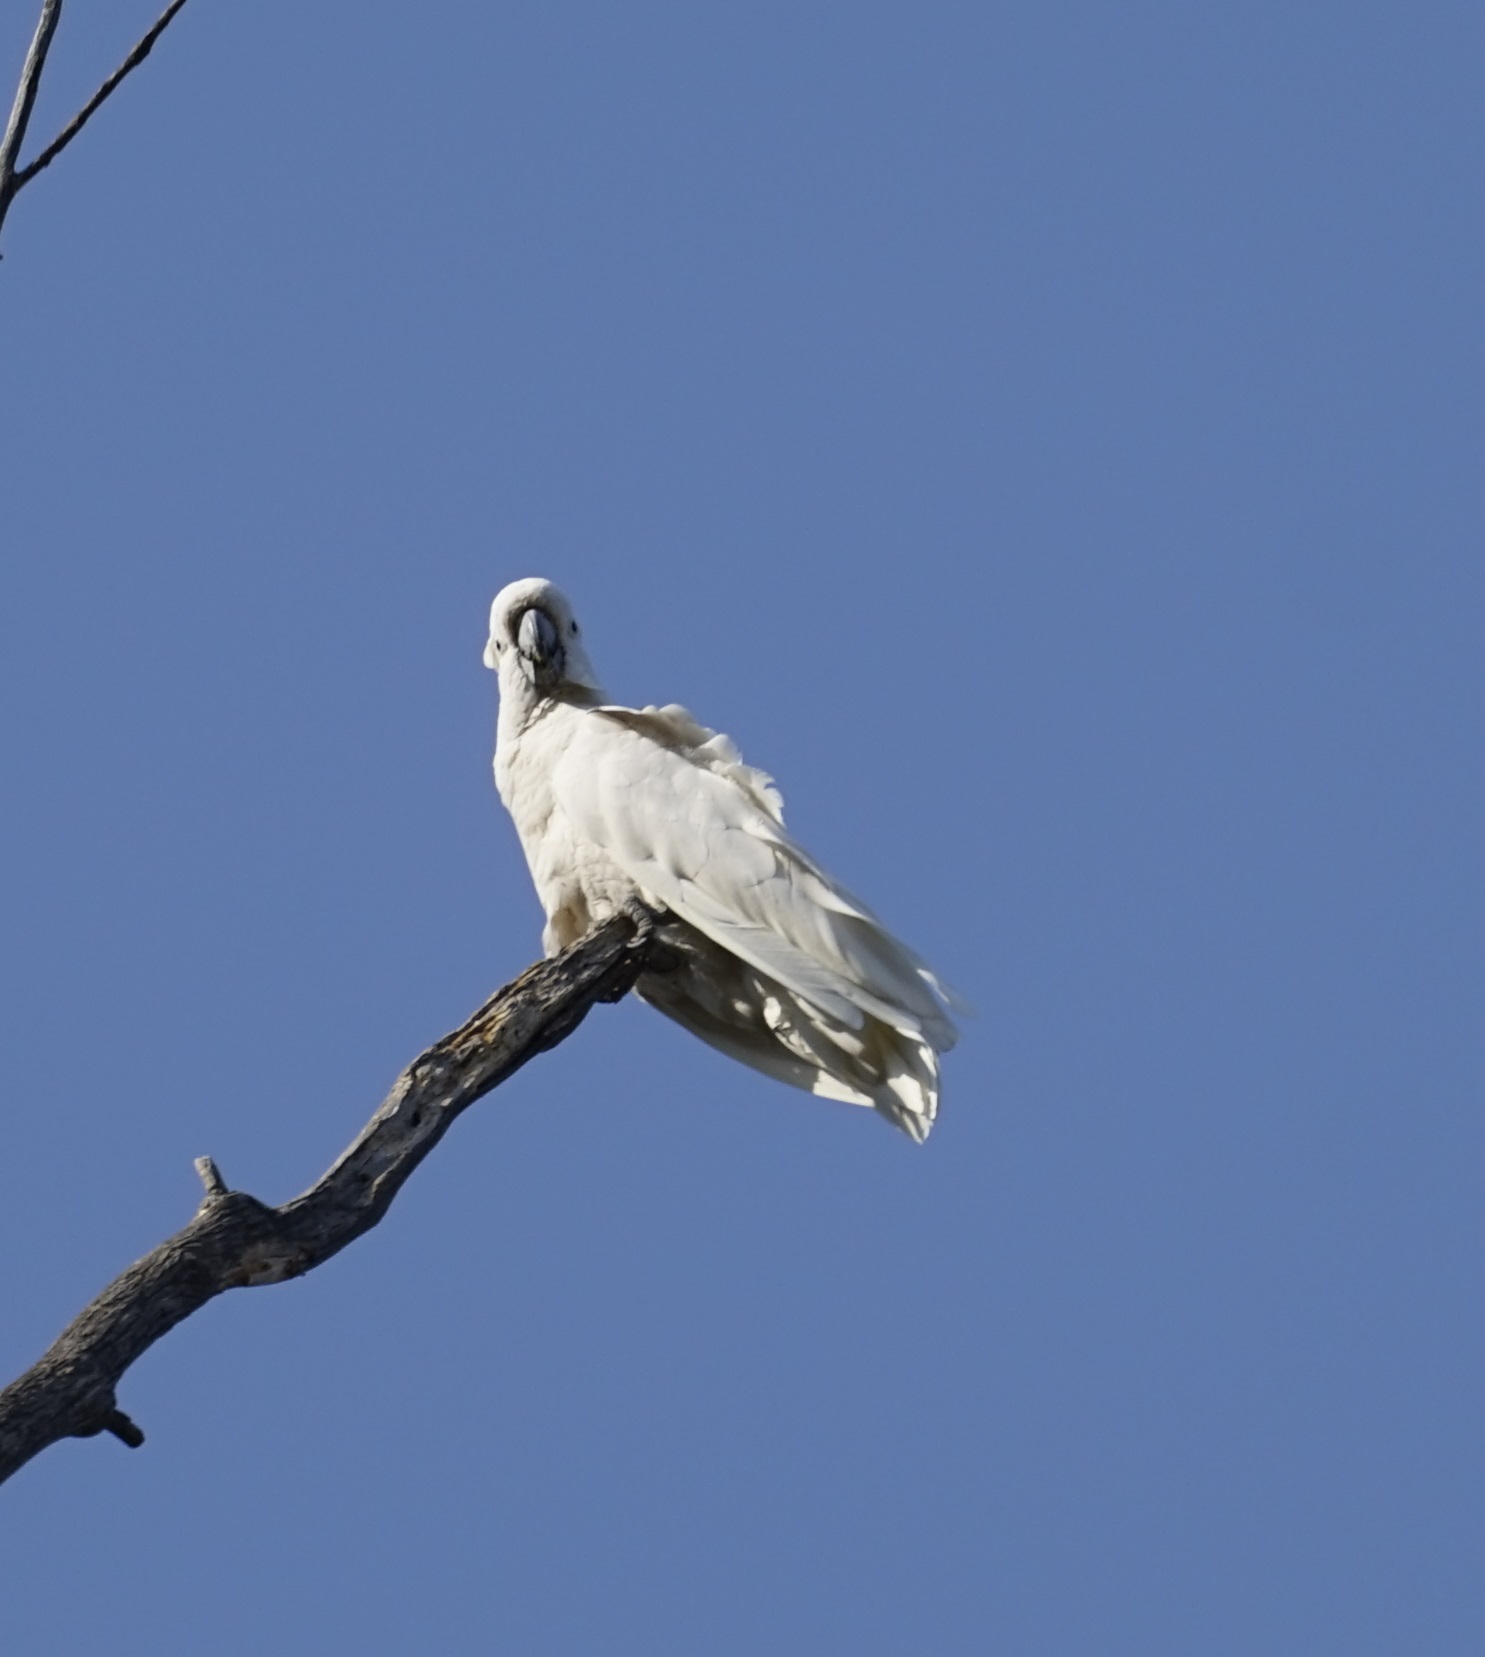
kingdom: Animalia
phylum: Chordata
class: Aves
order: Psittaciformes
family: Psittacidae
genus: Cacatua
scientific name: Cacatua galerita
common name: Sulphur-crested cockatoo
